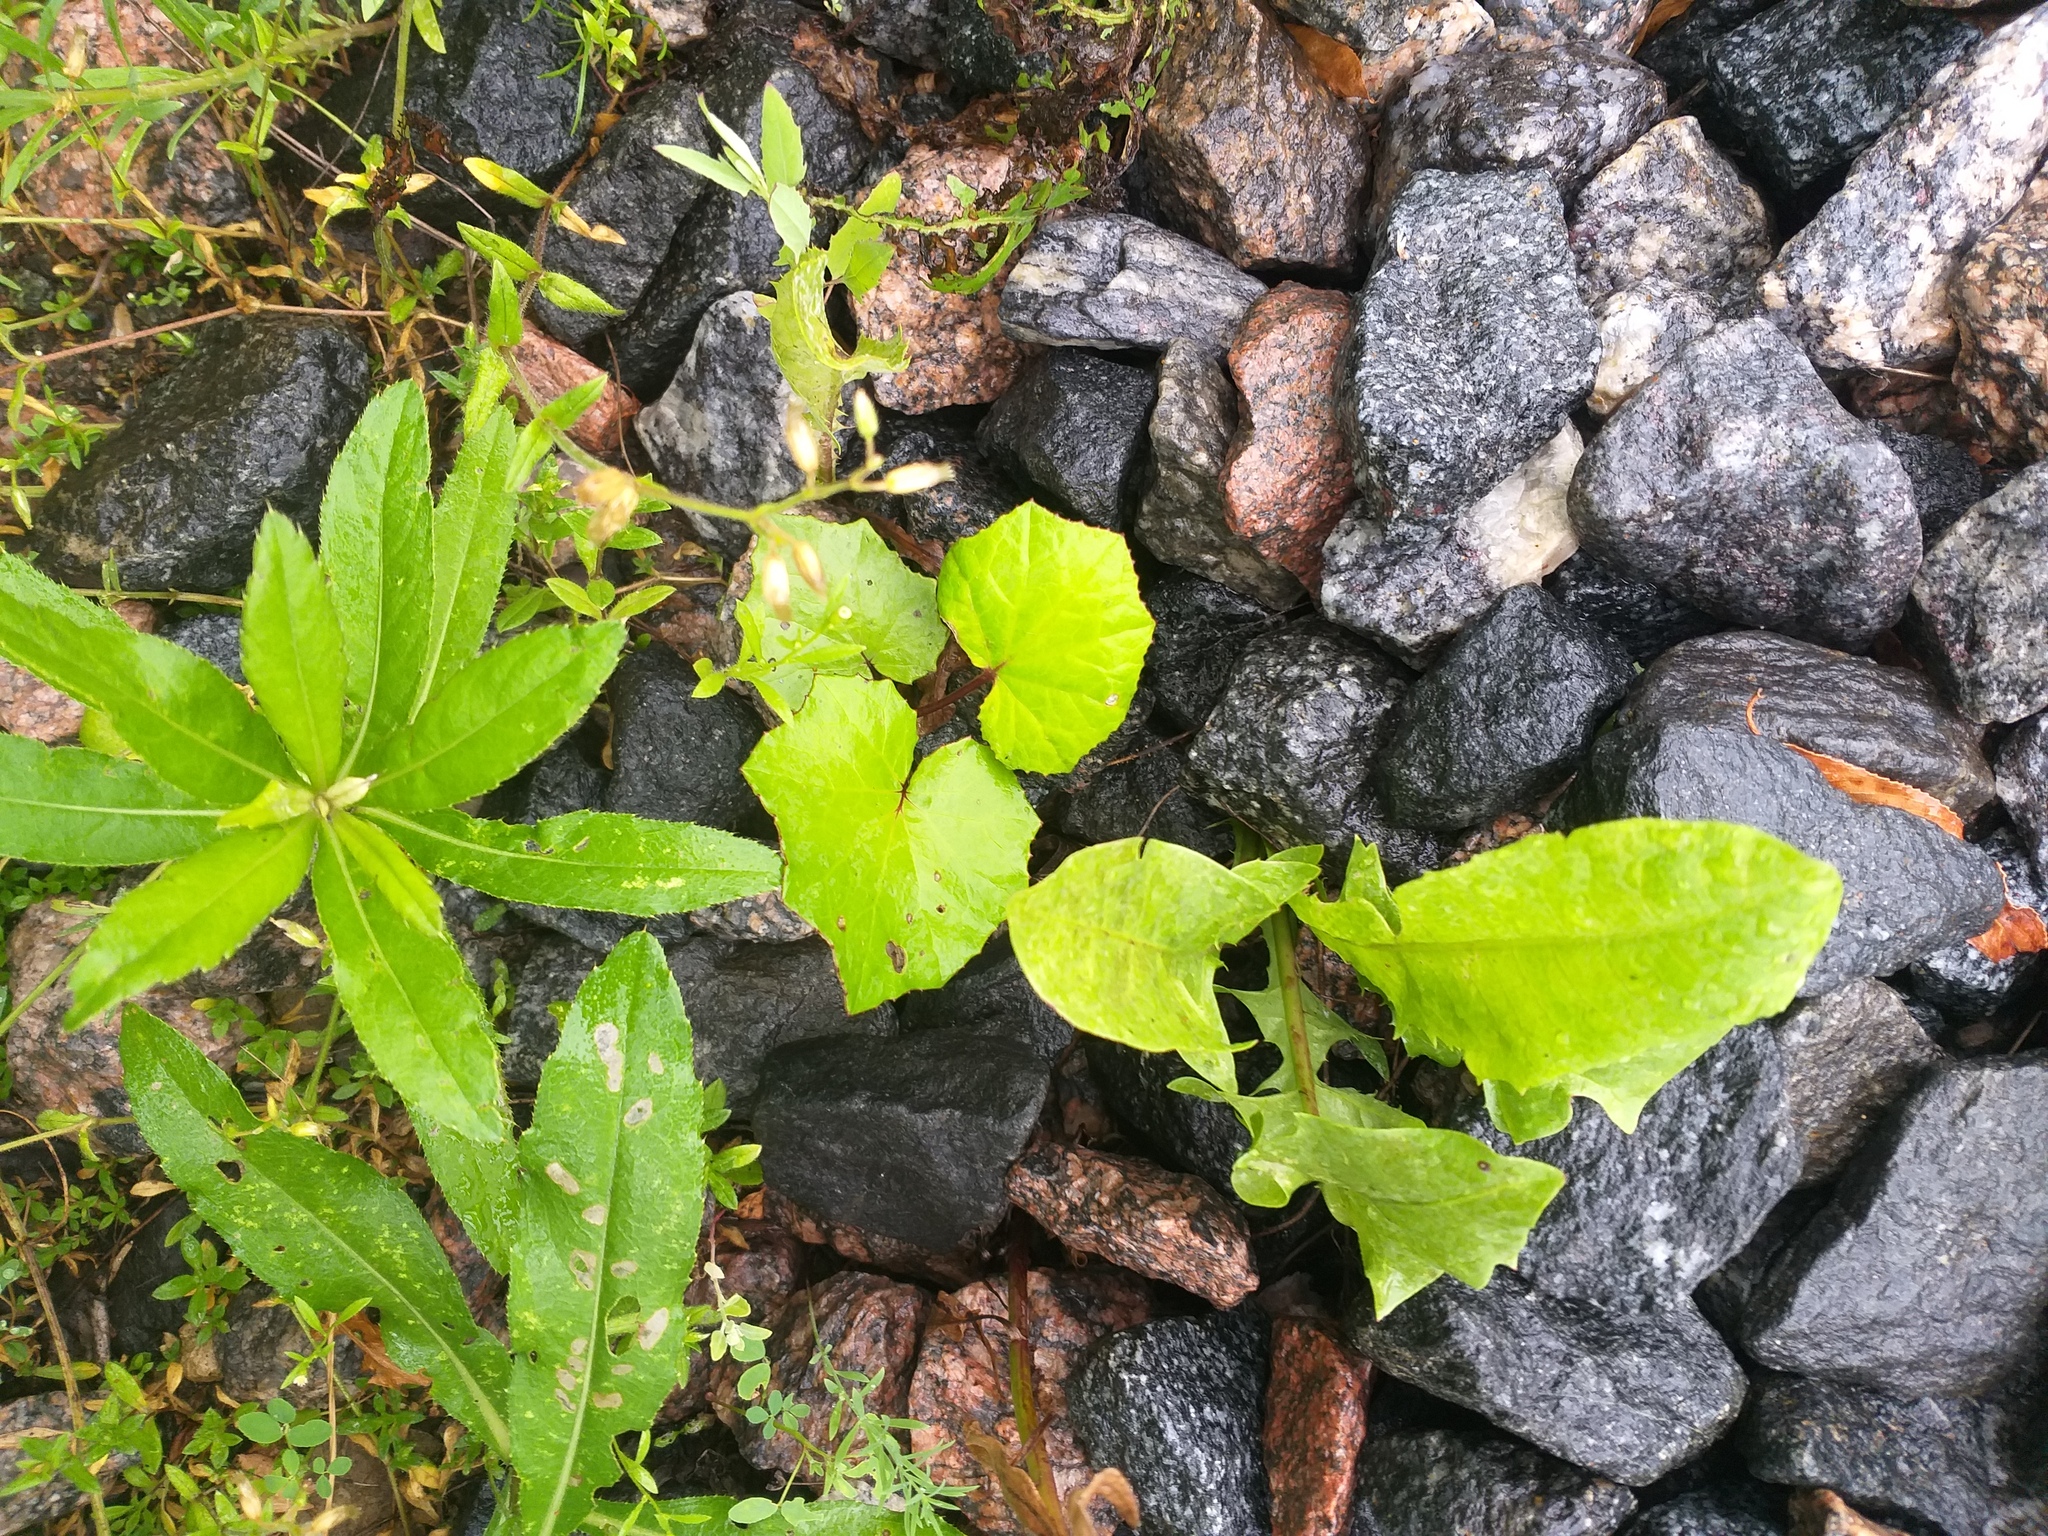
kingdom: Plantae
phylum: Tracheophyta
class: Magnoliopsida
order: Asterales
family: Asteraceae
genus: Tussilago
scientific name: Tussilago farfara
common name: Coltsfoot
